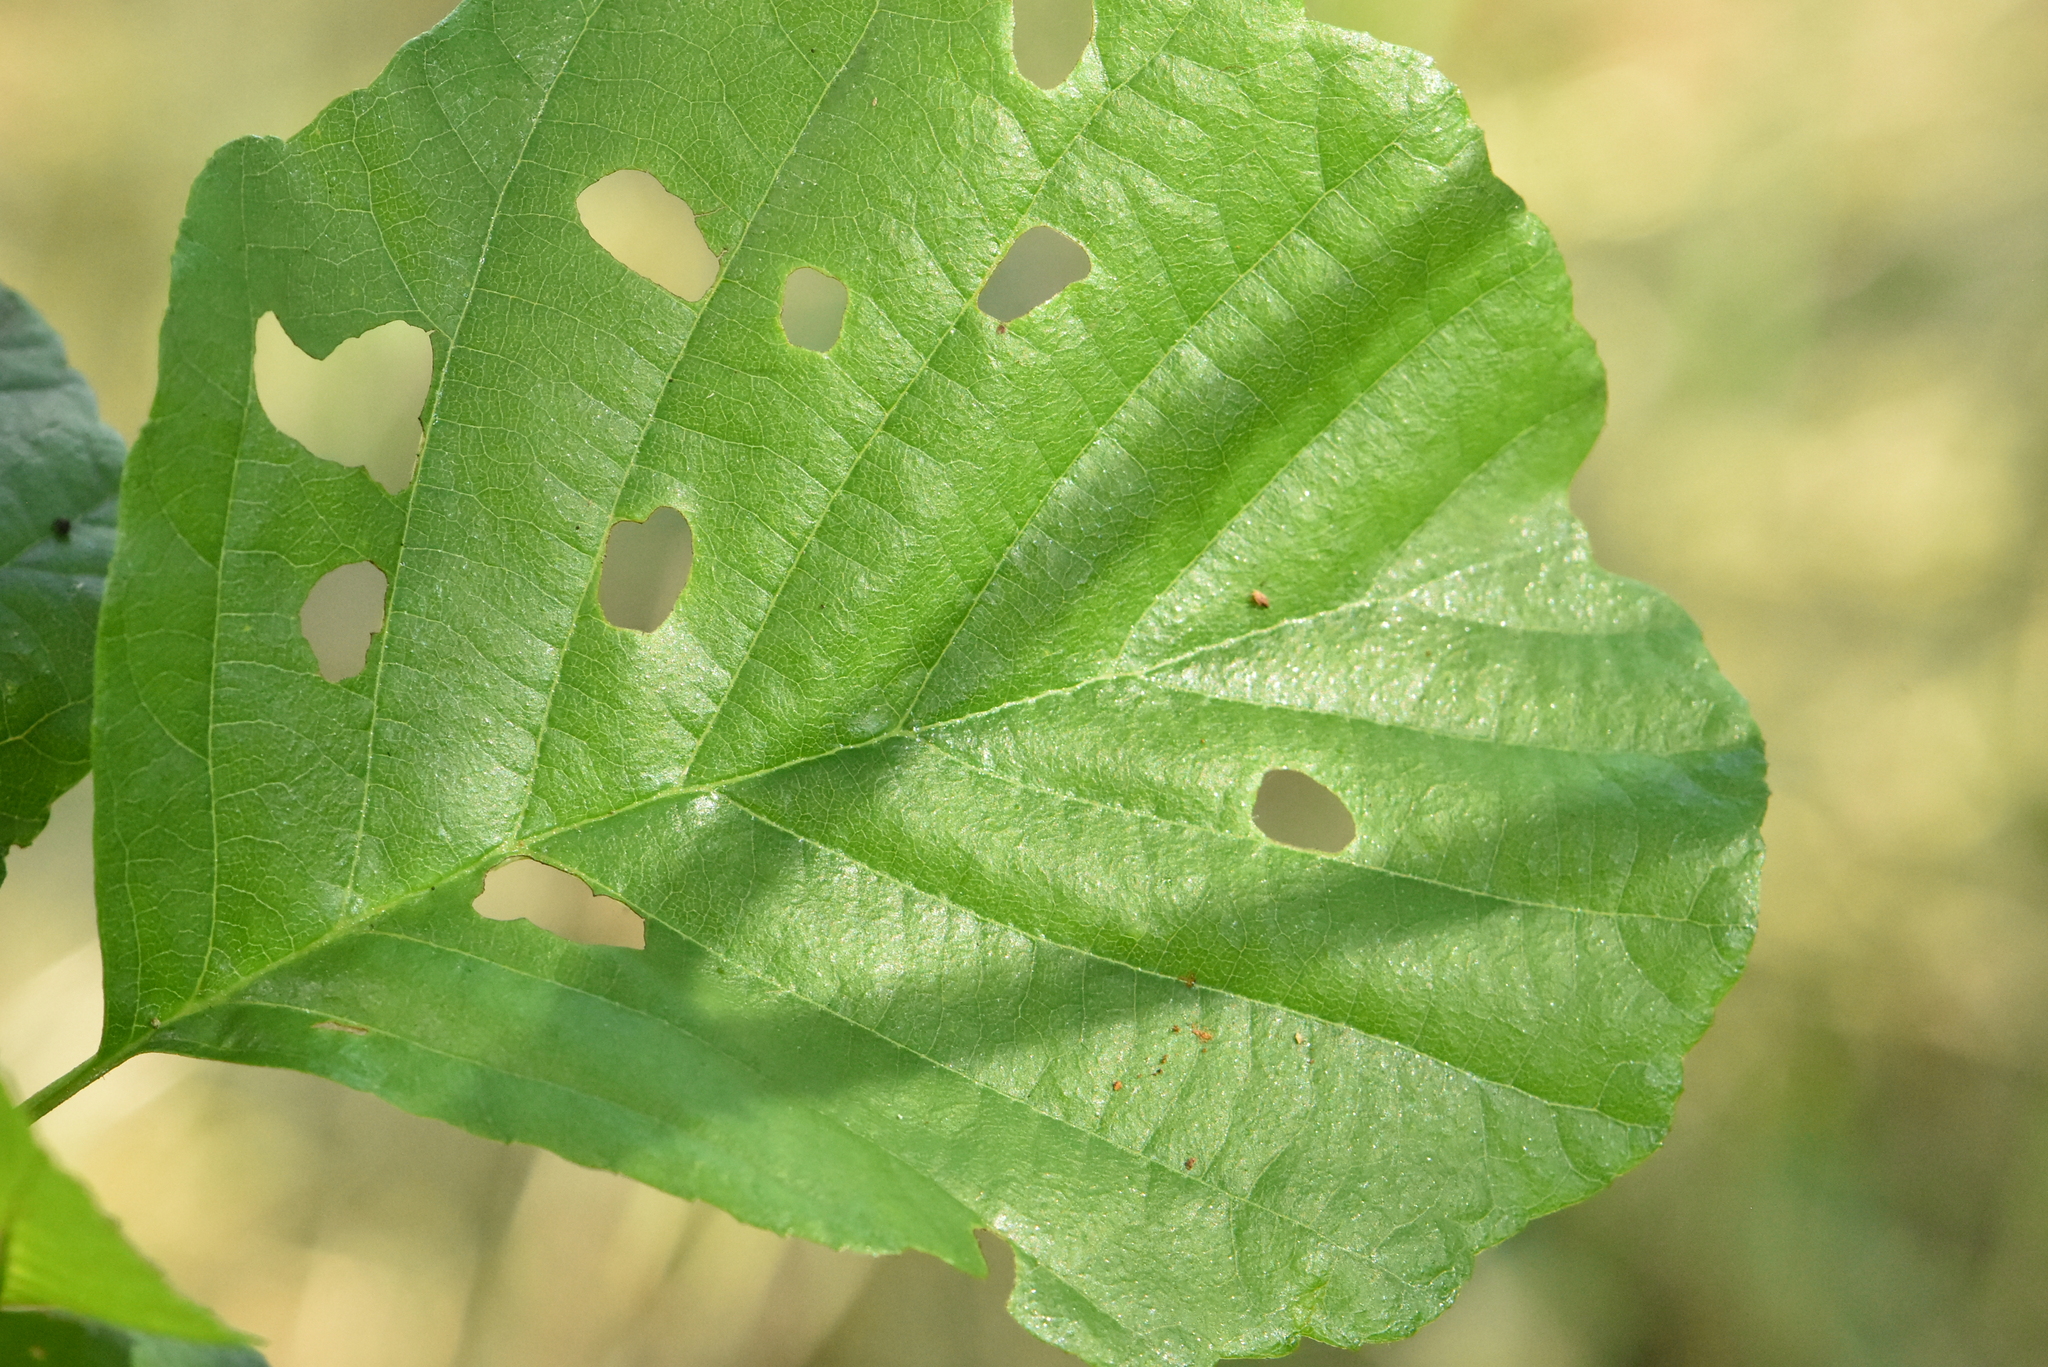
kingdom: Plantae
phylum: Tracheophyta
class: Magnoliopsida
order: Fagales
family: Betulaceae
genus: Alnus
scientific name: Alnus glutinosa
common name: Black alder
